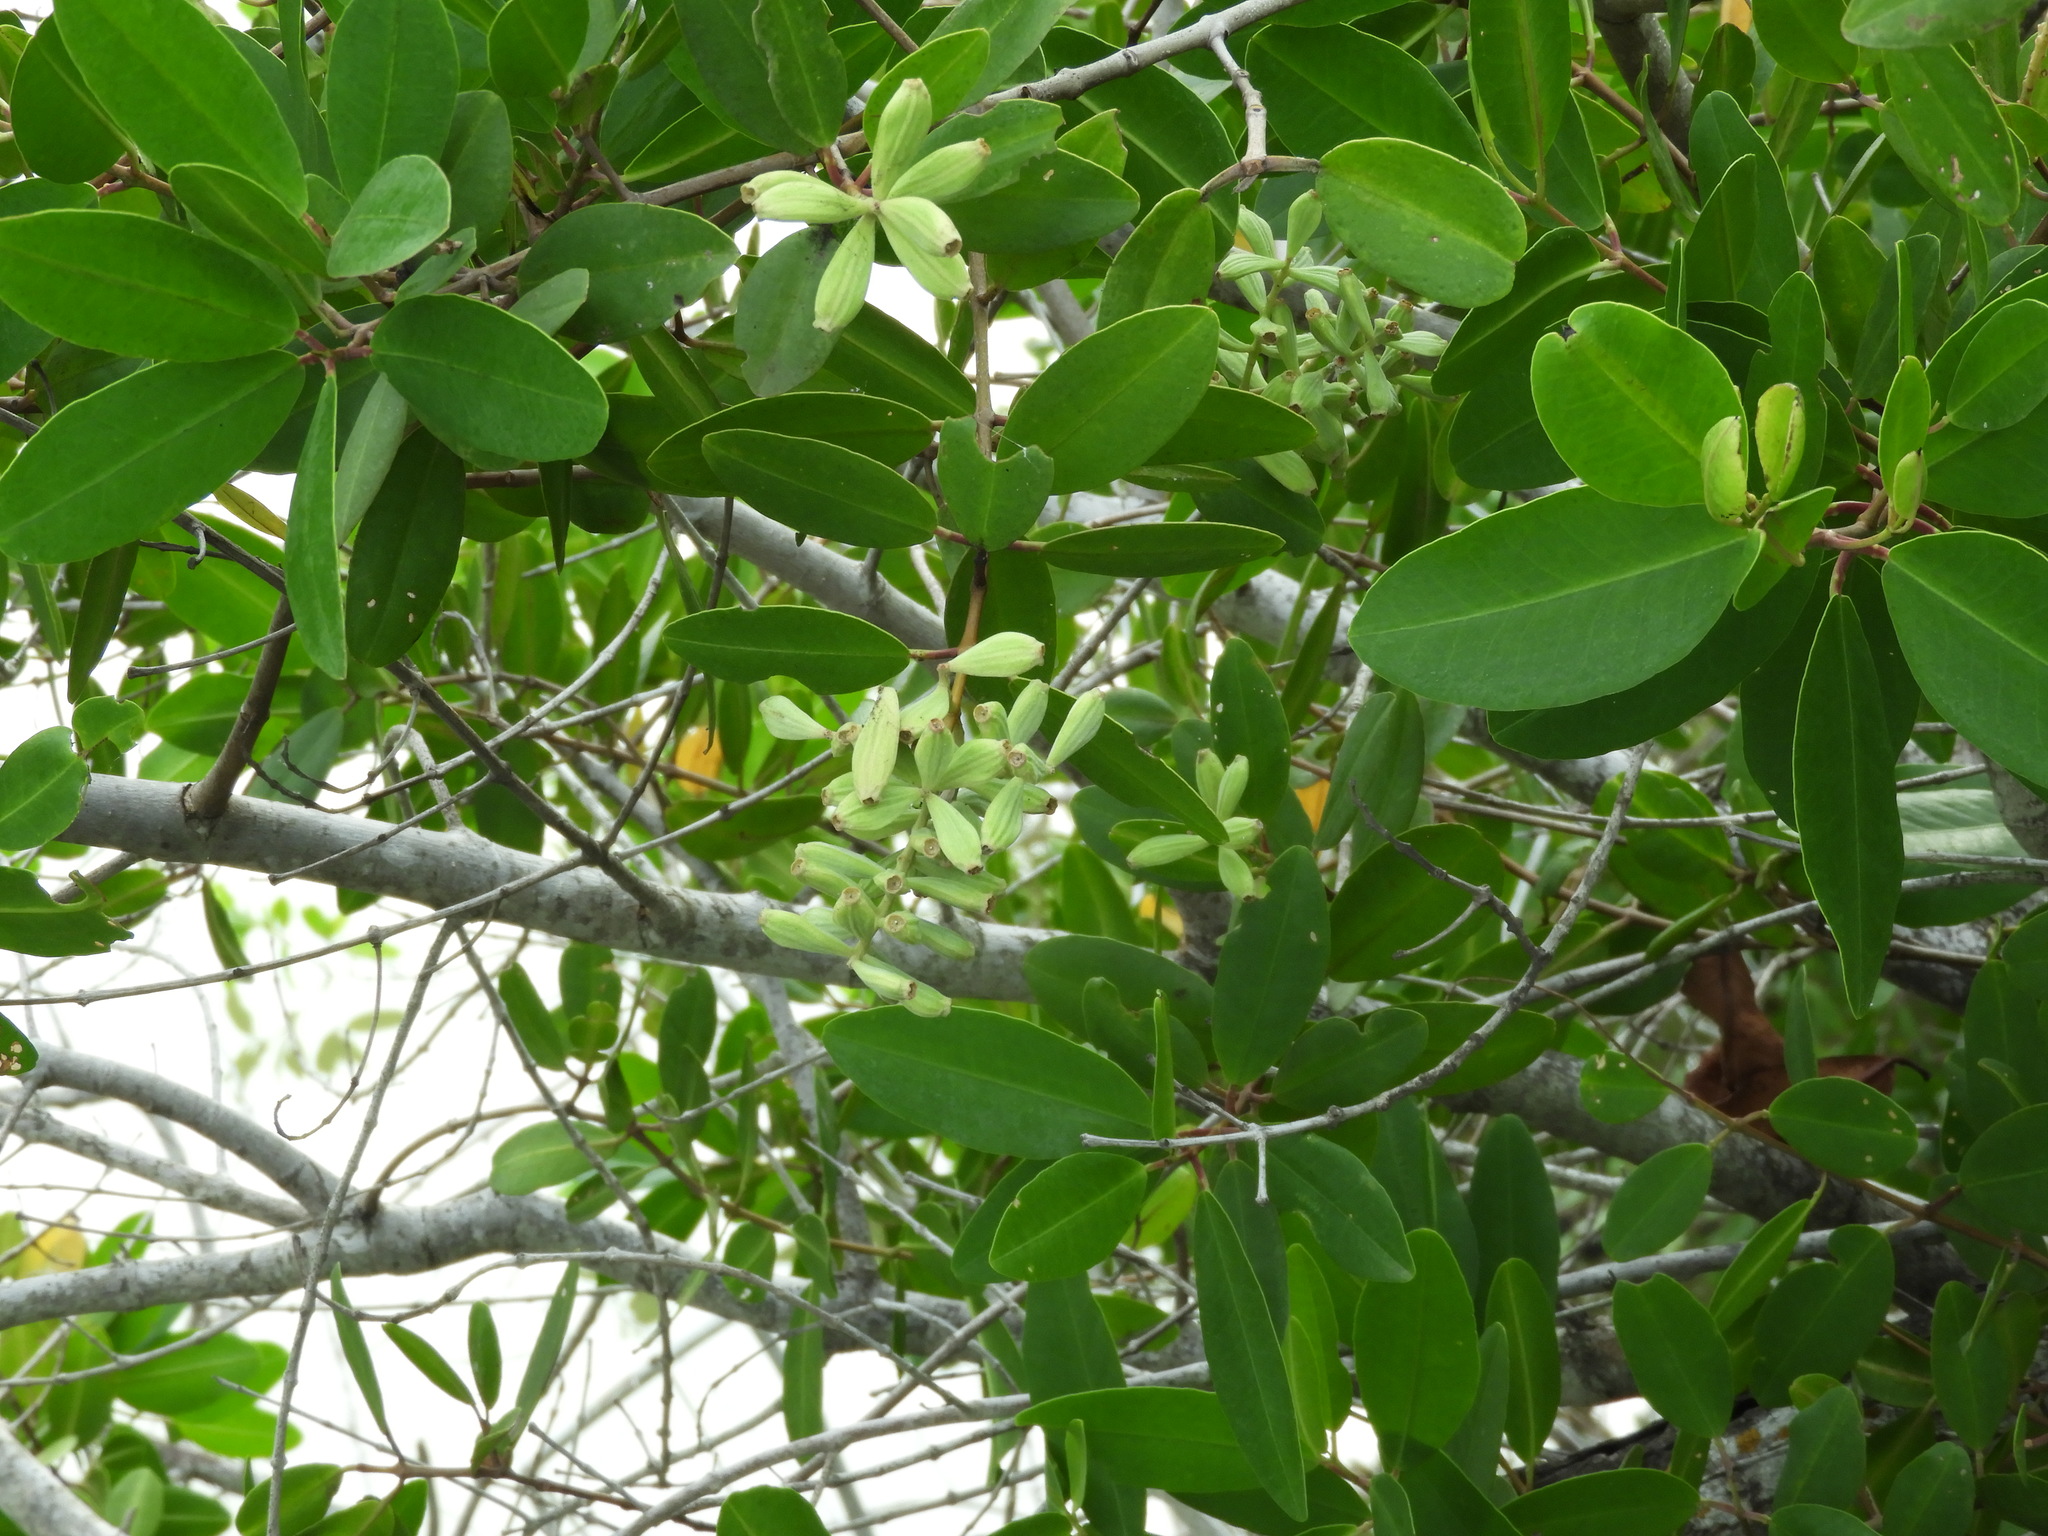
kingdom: Plantae
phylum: Tracheophyta
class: Magnoliopsida
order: Myrtales
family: Combretaceae
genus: Laguncularia
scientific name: Laguncularia racemosa
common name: White mangrove
